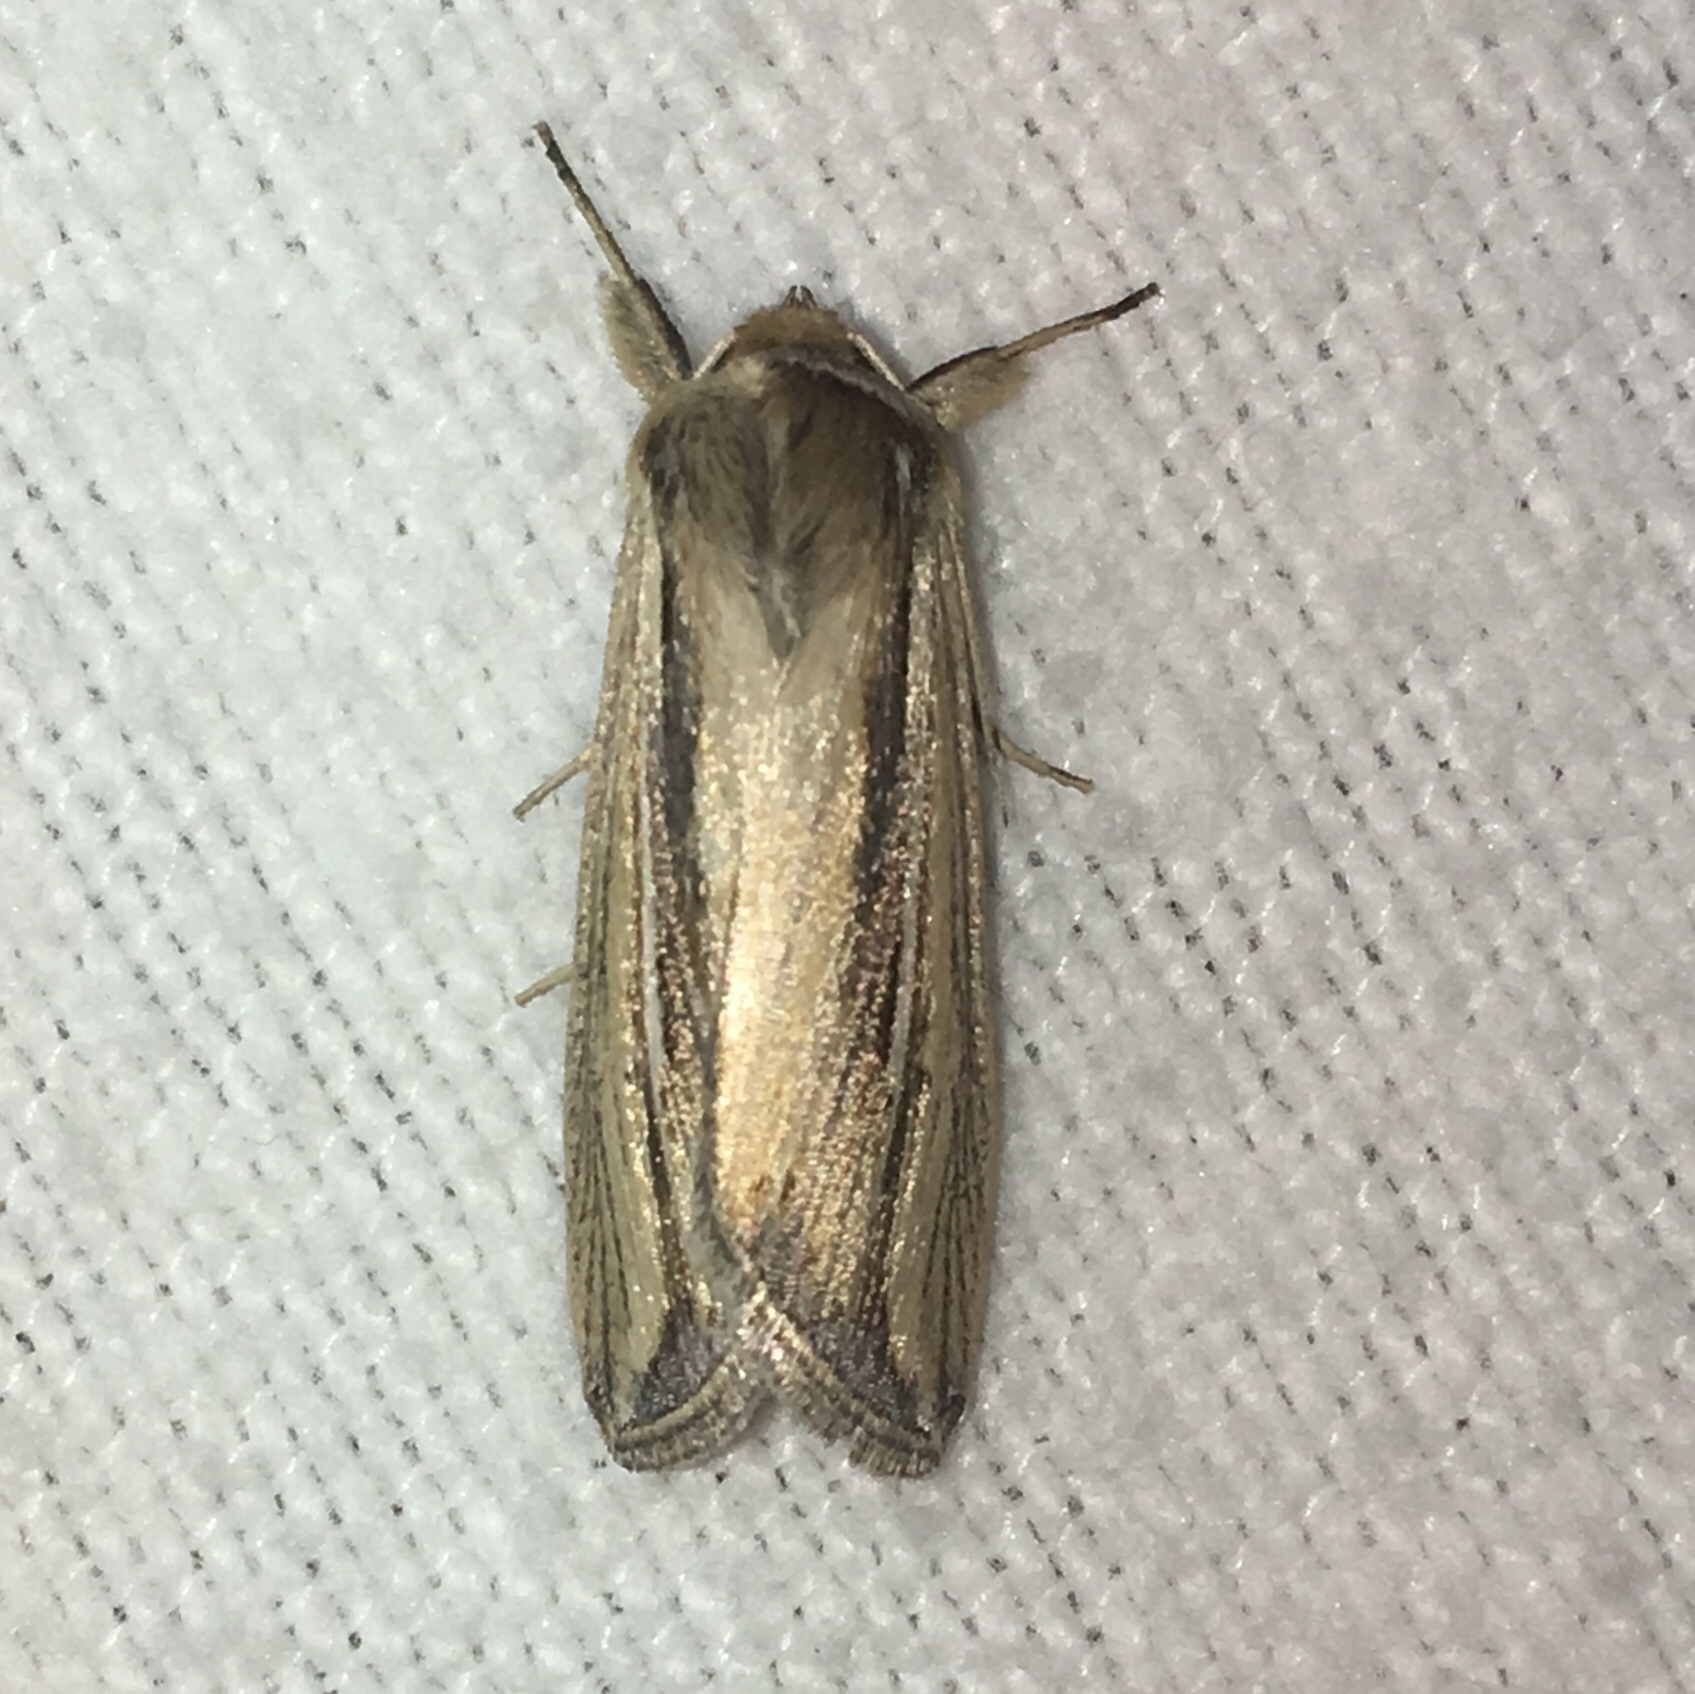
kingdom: Animalia
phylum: Arthropoda
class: Insecta
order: Lepidoptera
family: Noctuidae
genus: Dargida
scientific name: Dargida diffusa
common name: Wheat head armyworm
